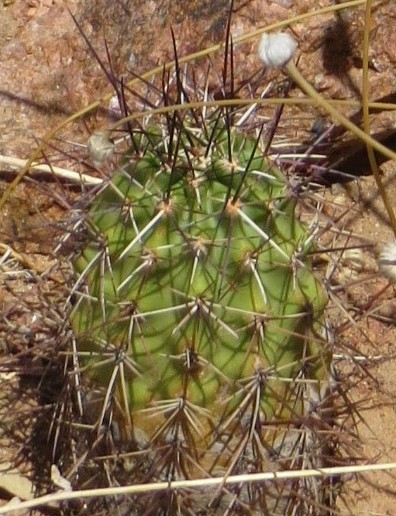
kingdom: Plantae
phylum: Tracheophyta
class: Magnoliopsida
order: Caryophyllales
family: Cactaceae
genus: Echinocereus
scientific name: Echinocereus fendleri
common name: Fendler's hedgehog cactus
